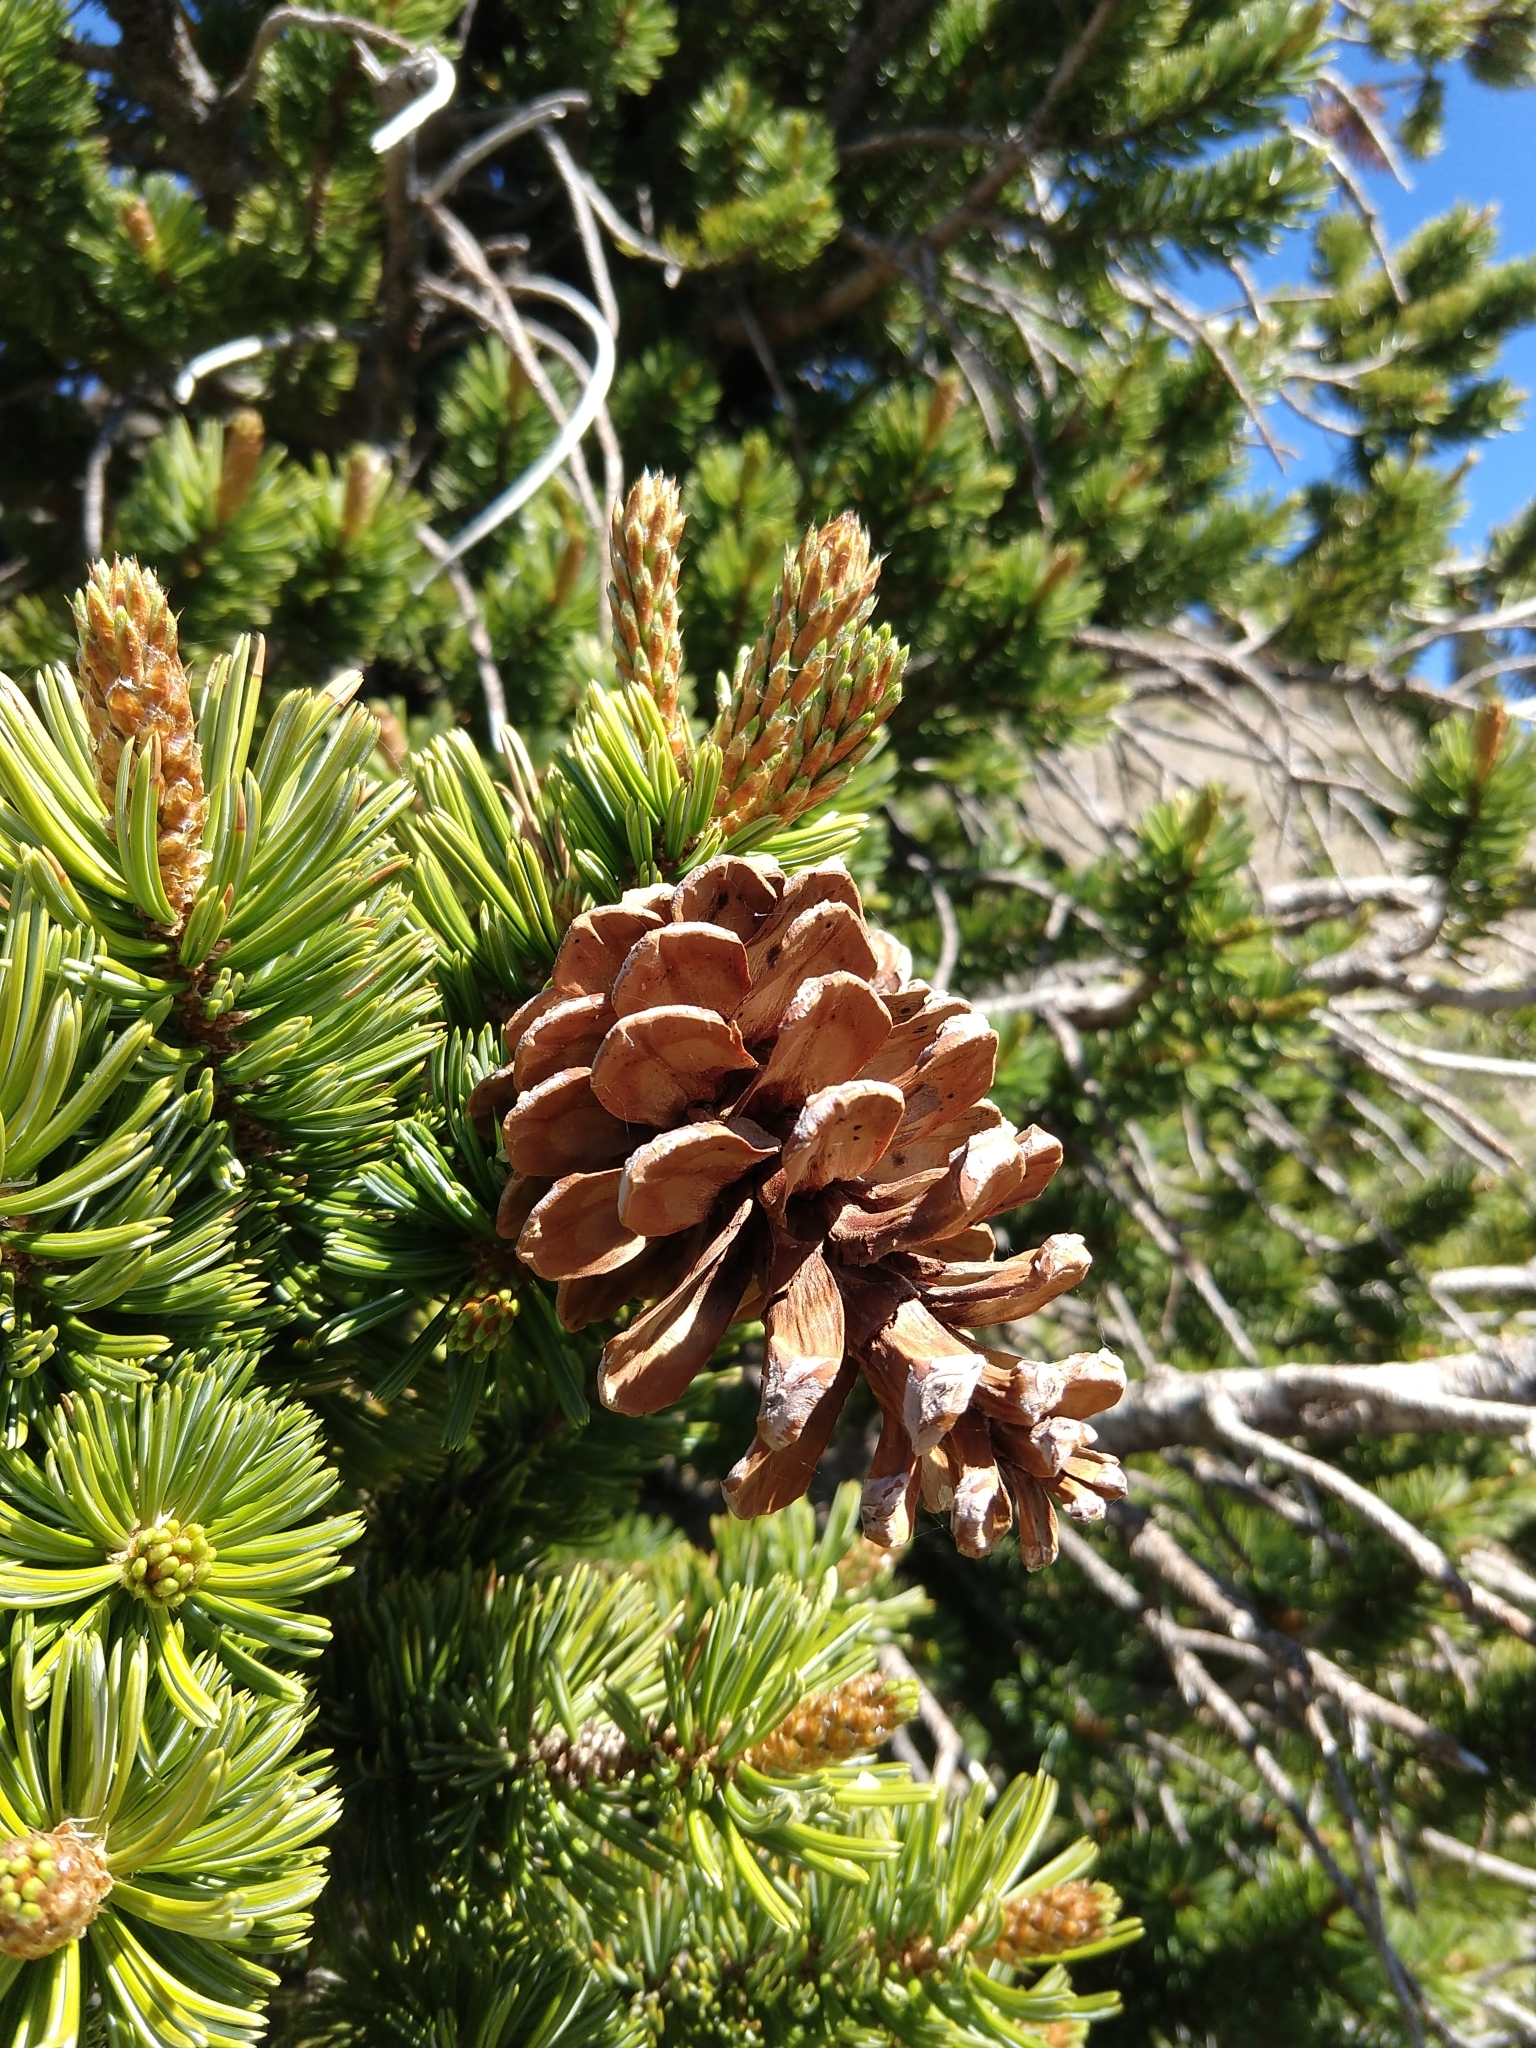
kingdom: Plantae
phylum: Tracheophyta
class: Pinopsida
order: Pinales
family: Pinaceae
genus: Pinus
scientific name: Pinus balfouriana
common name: Foxtail pine
